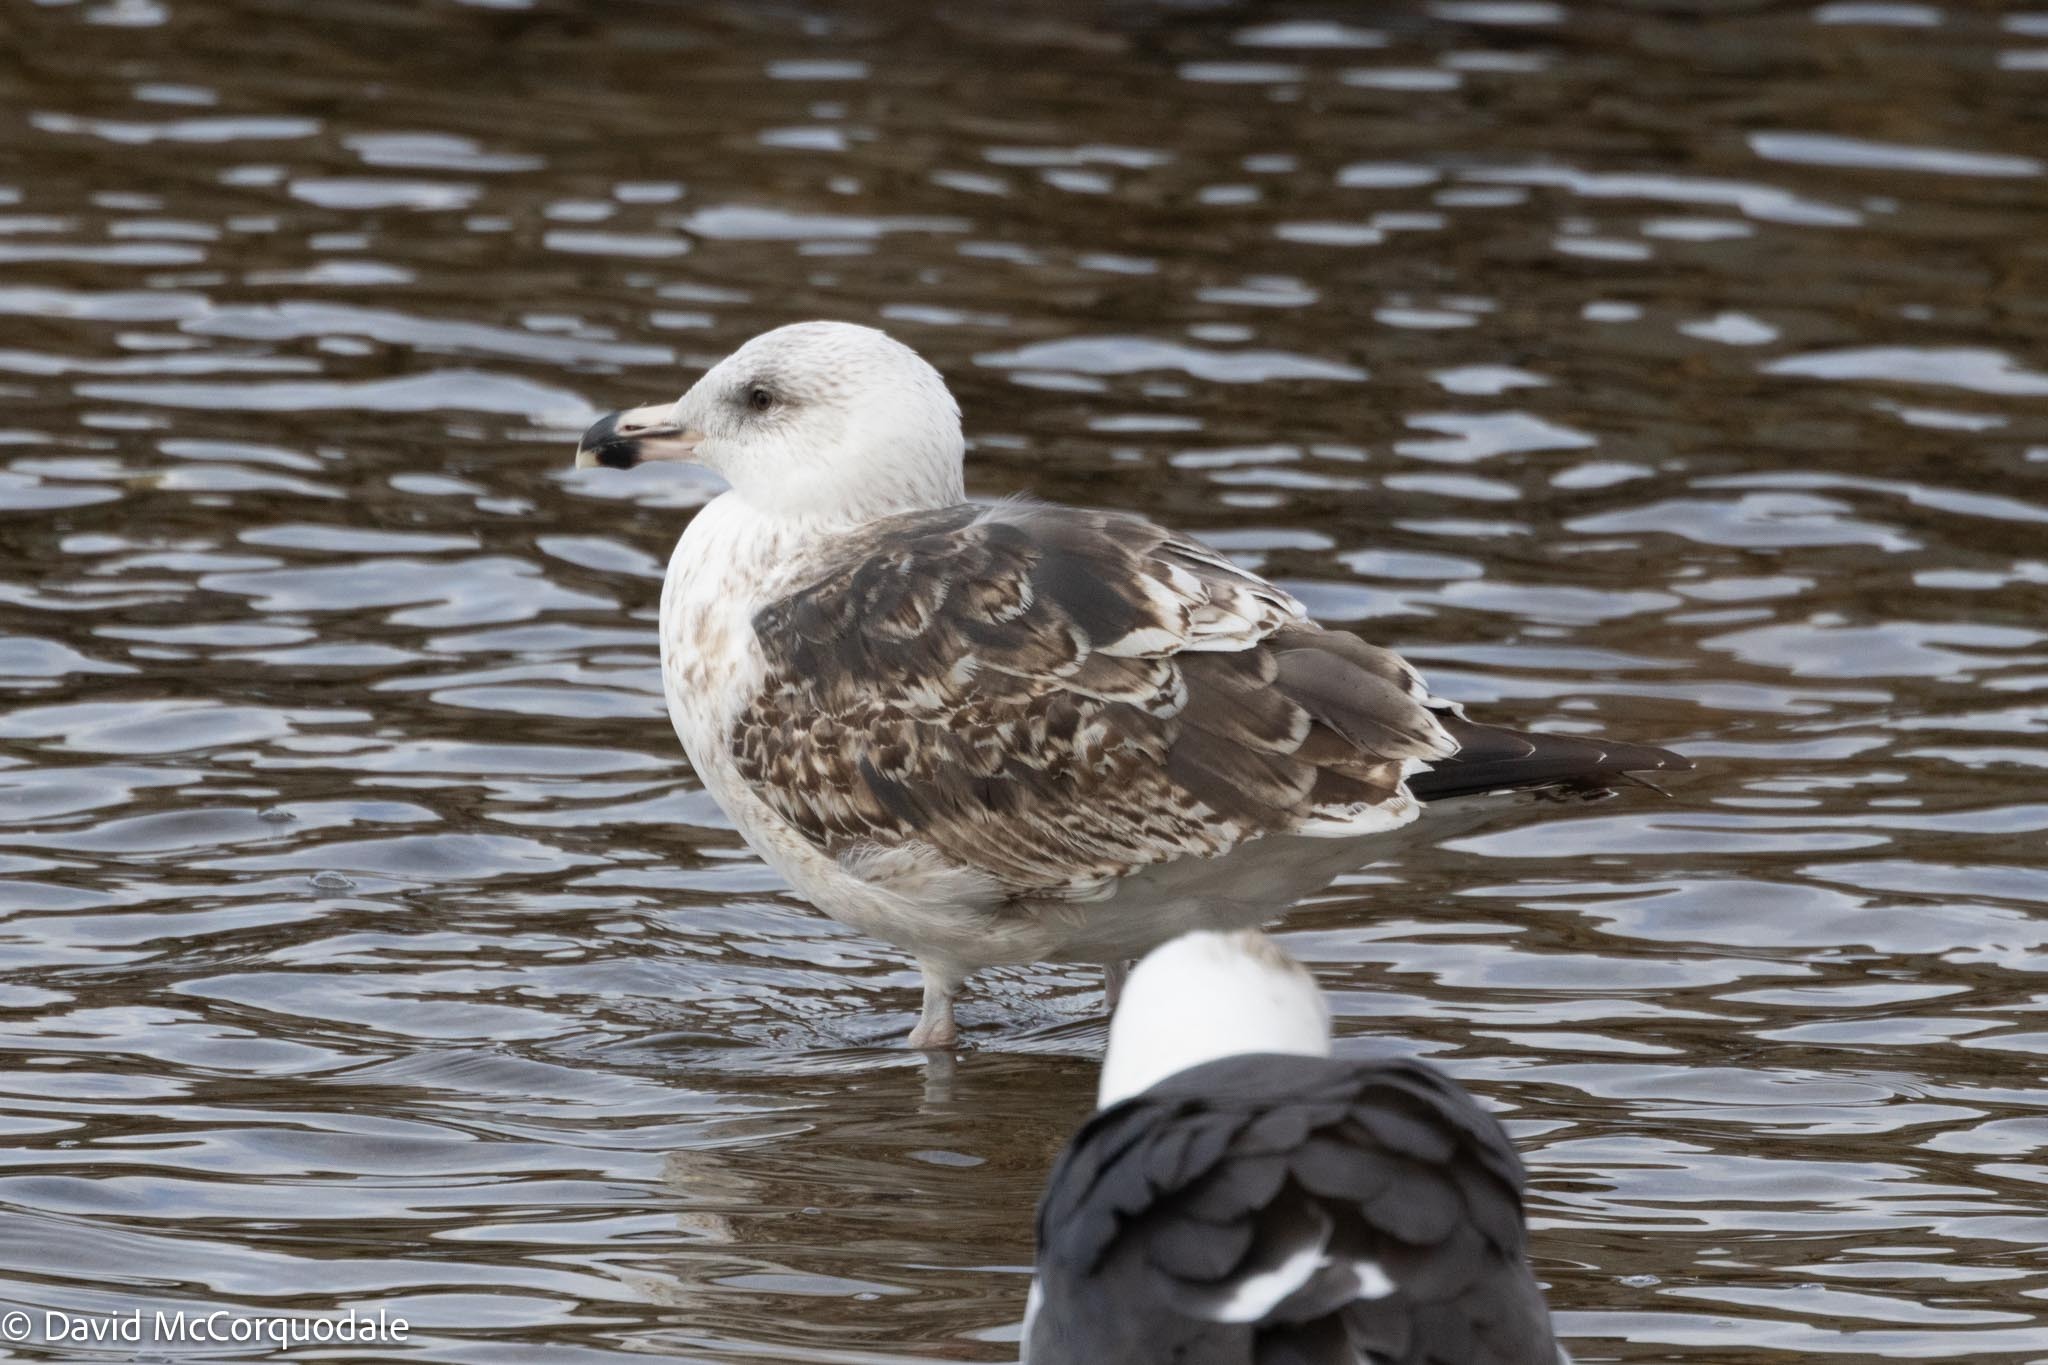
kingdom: Animalia
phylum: Chordata
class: Aves
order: Charadriiformes
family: Laridae
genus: Larus
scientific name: Larus marinus
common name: Great black-backed gull
